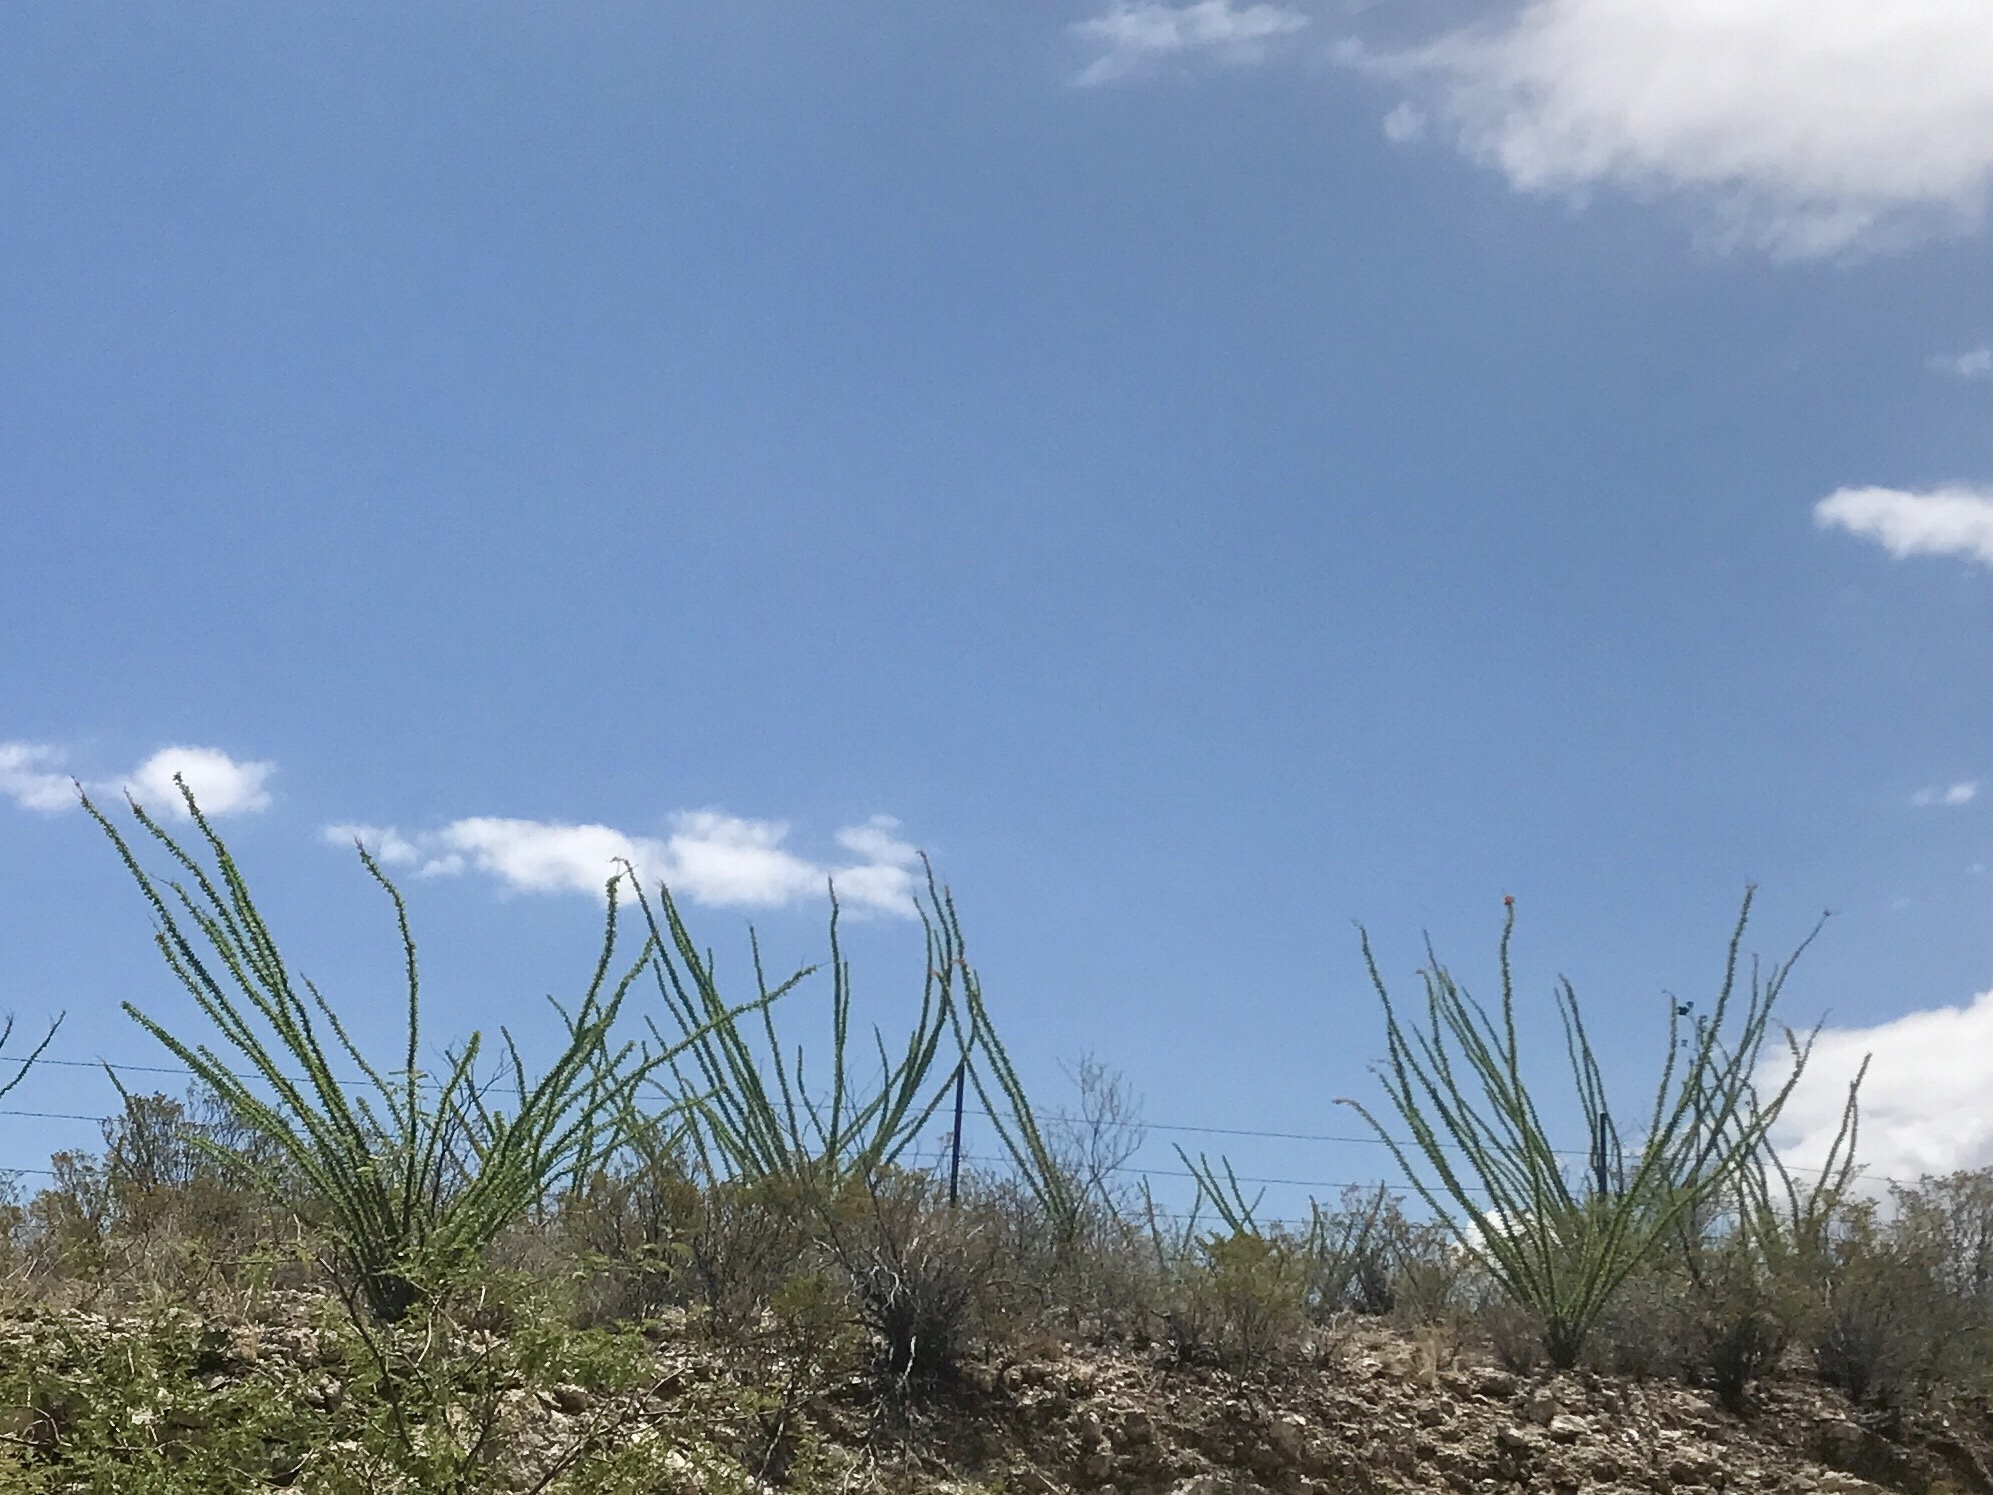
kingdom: Plantae
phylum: Tracheophyta
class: Magnoliopsida
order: Ericales
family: Fouquieriaceae
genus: Fouquieria
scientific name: Fouquieria splendens
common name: Vine-cactus
